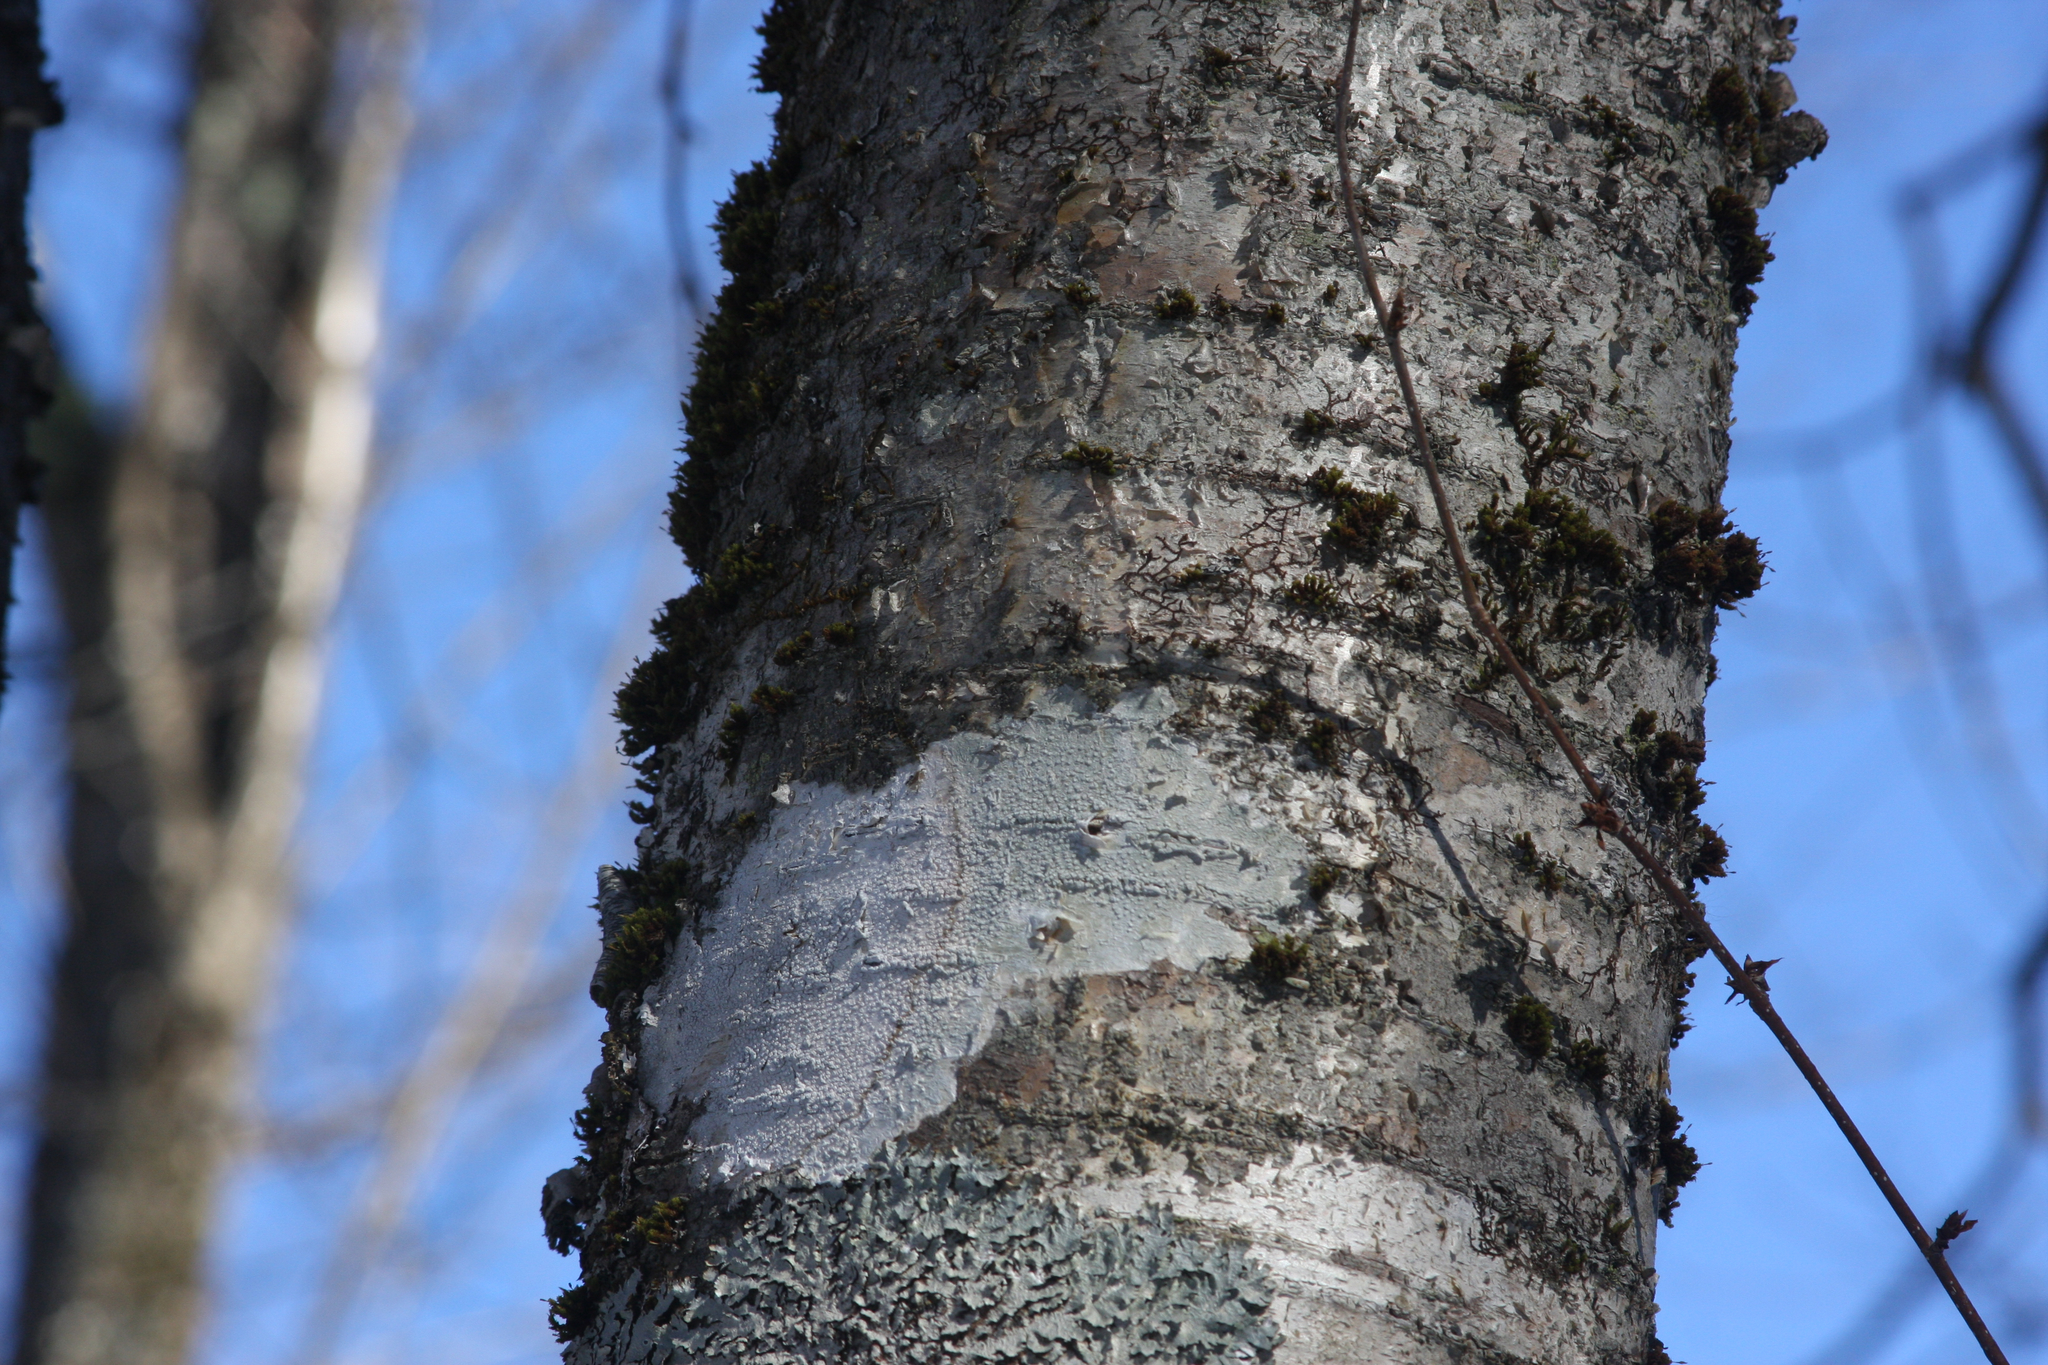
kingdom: Plantae
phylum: Bryophyta
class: Bryopsida
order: Orthotrichales
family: Orthotrichaceae
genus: Ulota
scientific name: Ulota crispa
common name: Crisped pincushion moss
